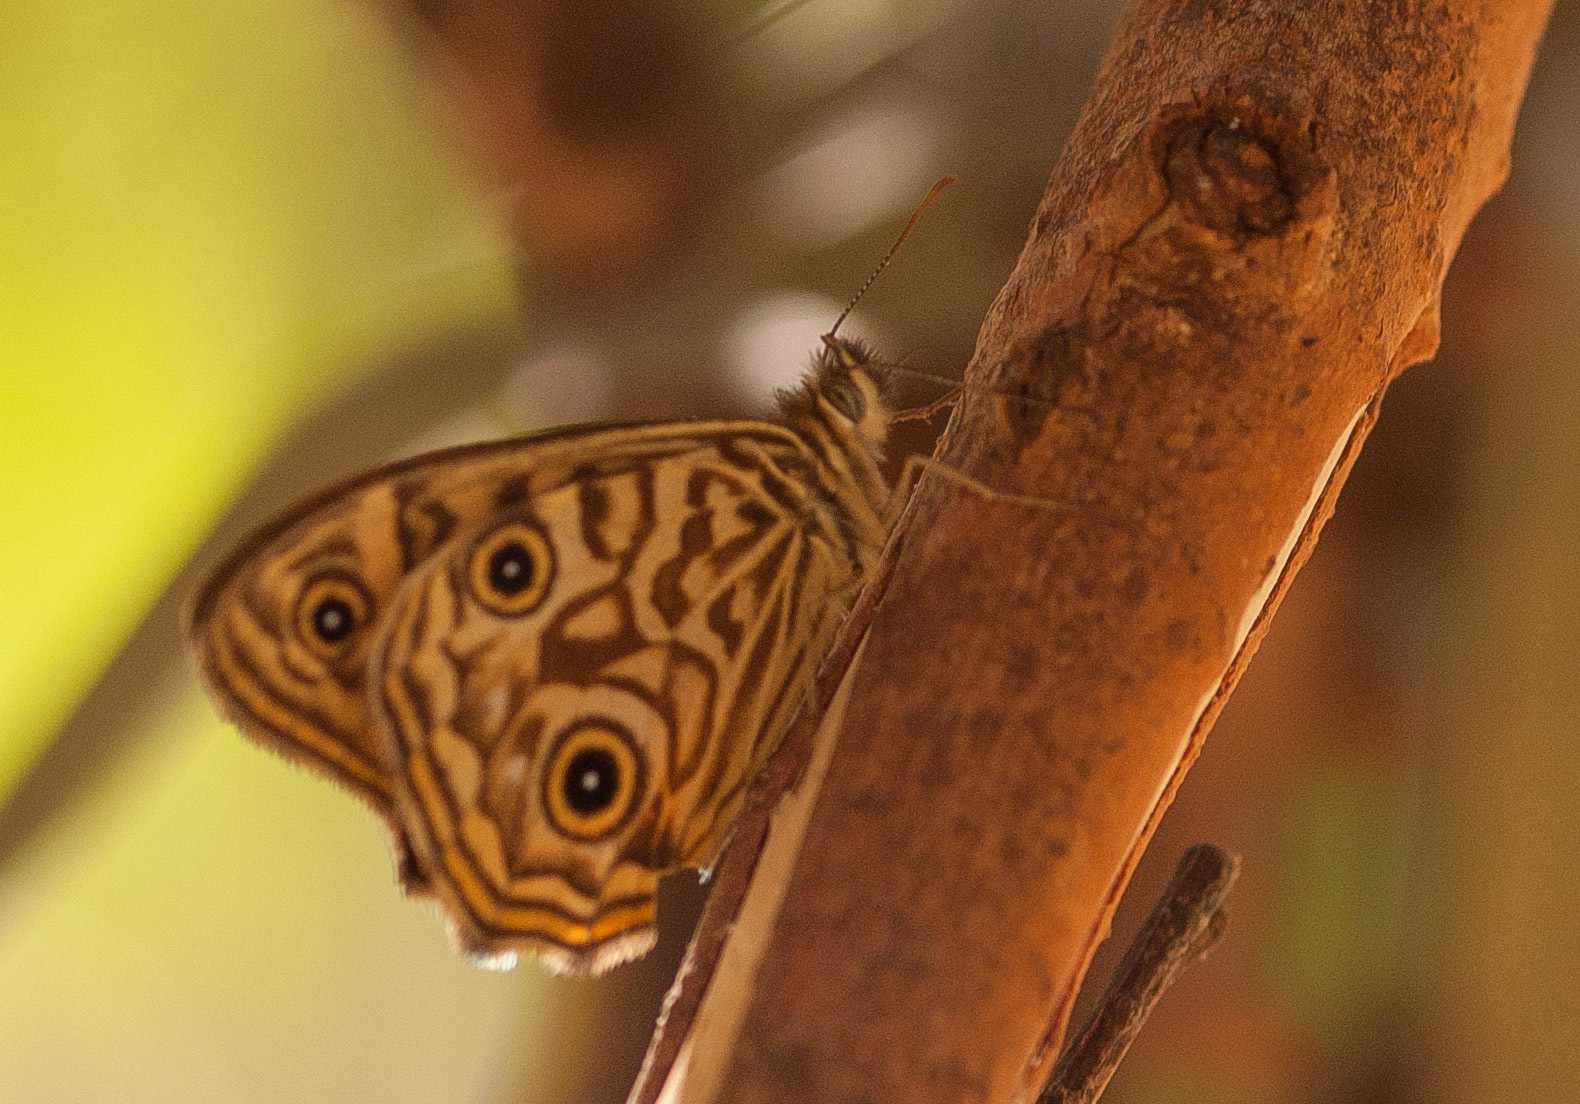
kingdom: Animalia
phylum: Arthropoda
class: Insecta
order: Lepidoptera
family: Nymphalidae
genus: Geitoneura
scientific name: Geitoneura acantha
